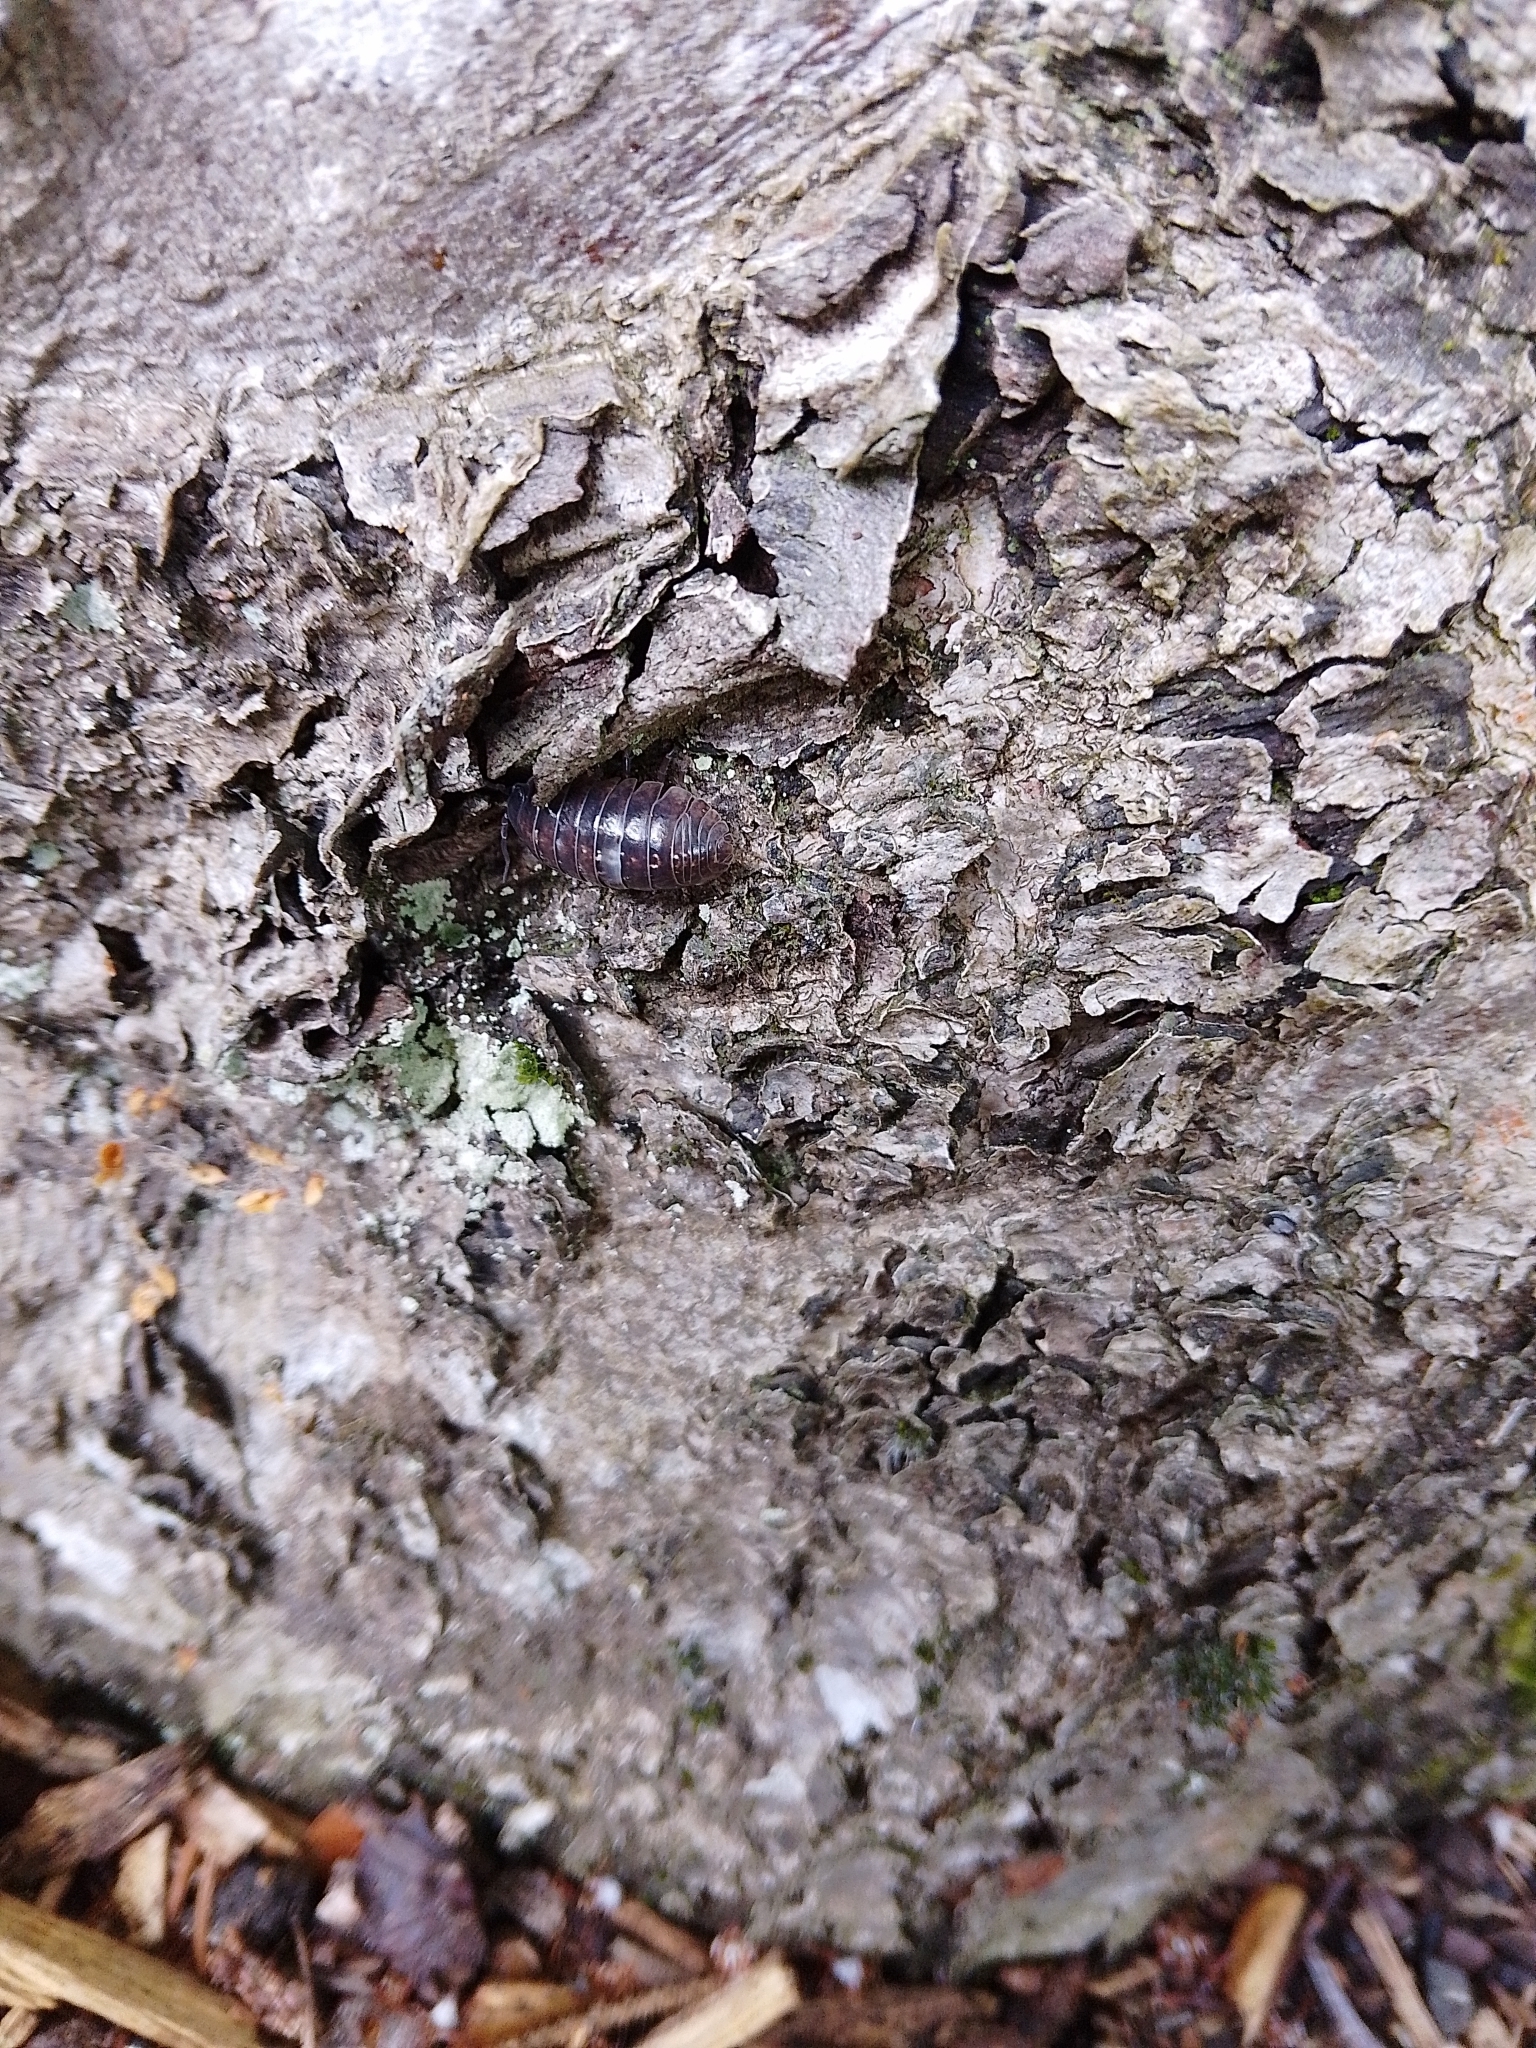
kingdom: Animalia
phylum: Arthropoda
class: Malacostraca
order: Isopoda
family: Armadillidiidae
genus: Armadillidium
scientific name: Armadillidium vulgare
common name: Common pill woodlouse
